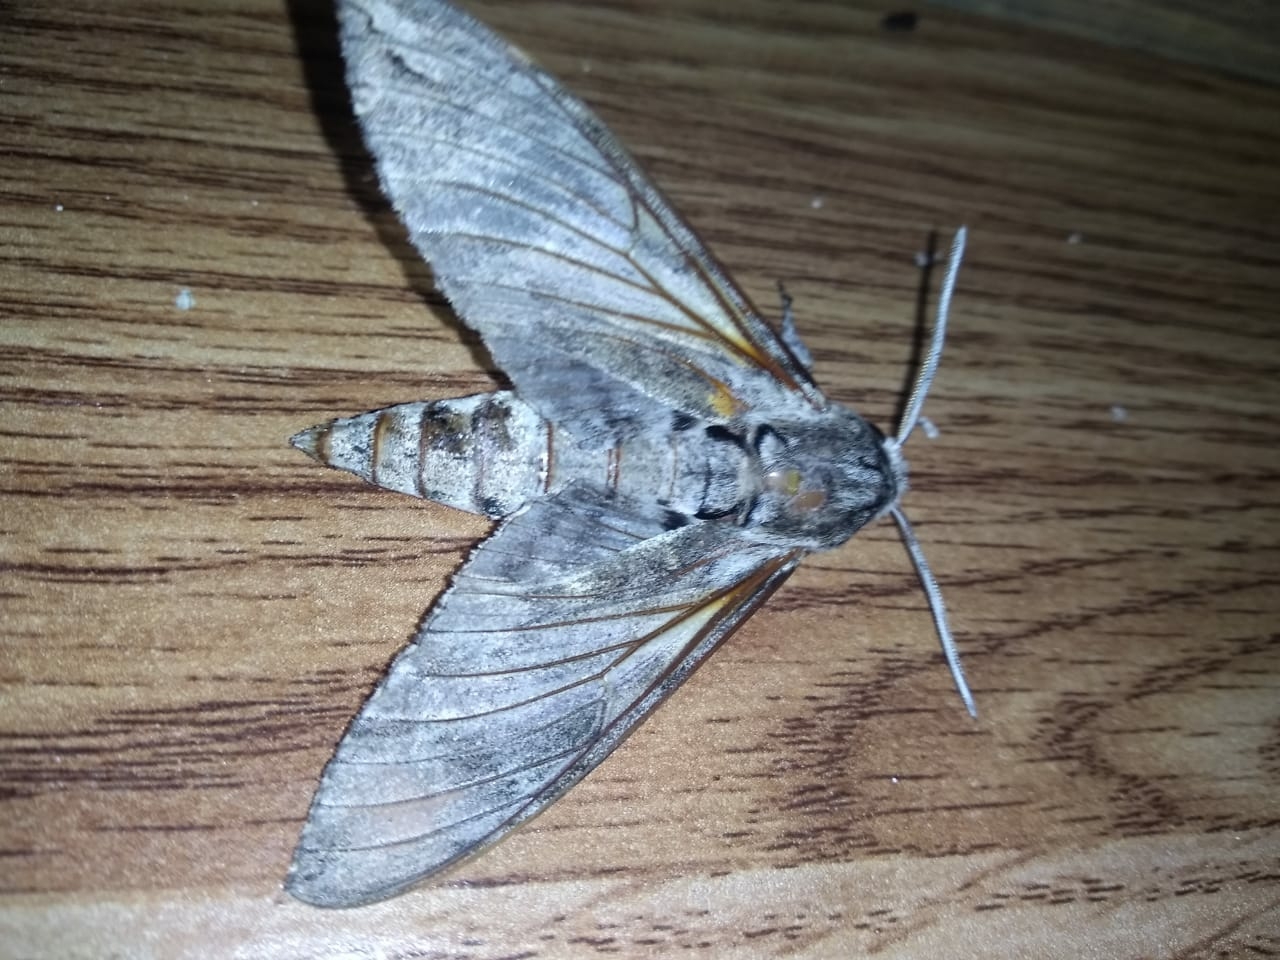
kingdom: Animalia
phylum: Arthropoda
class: Insecta
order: Lepidoptera
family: Sphingidae
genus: Agrius
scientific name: Agrius convolvuli
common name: Convolvulus hawkmoth
